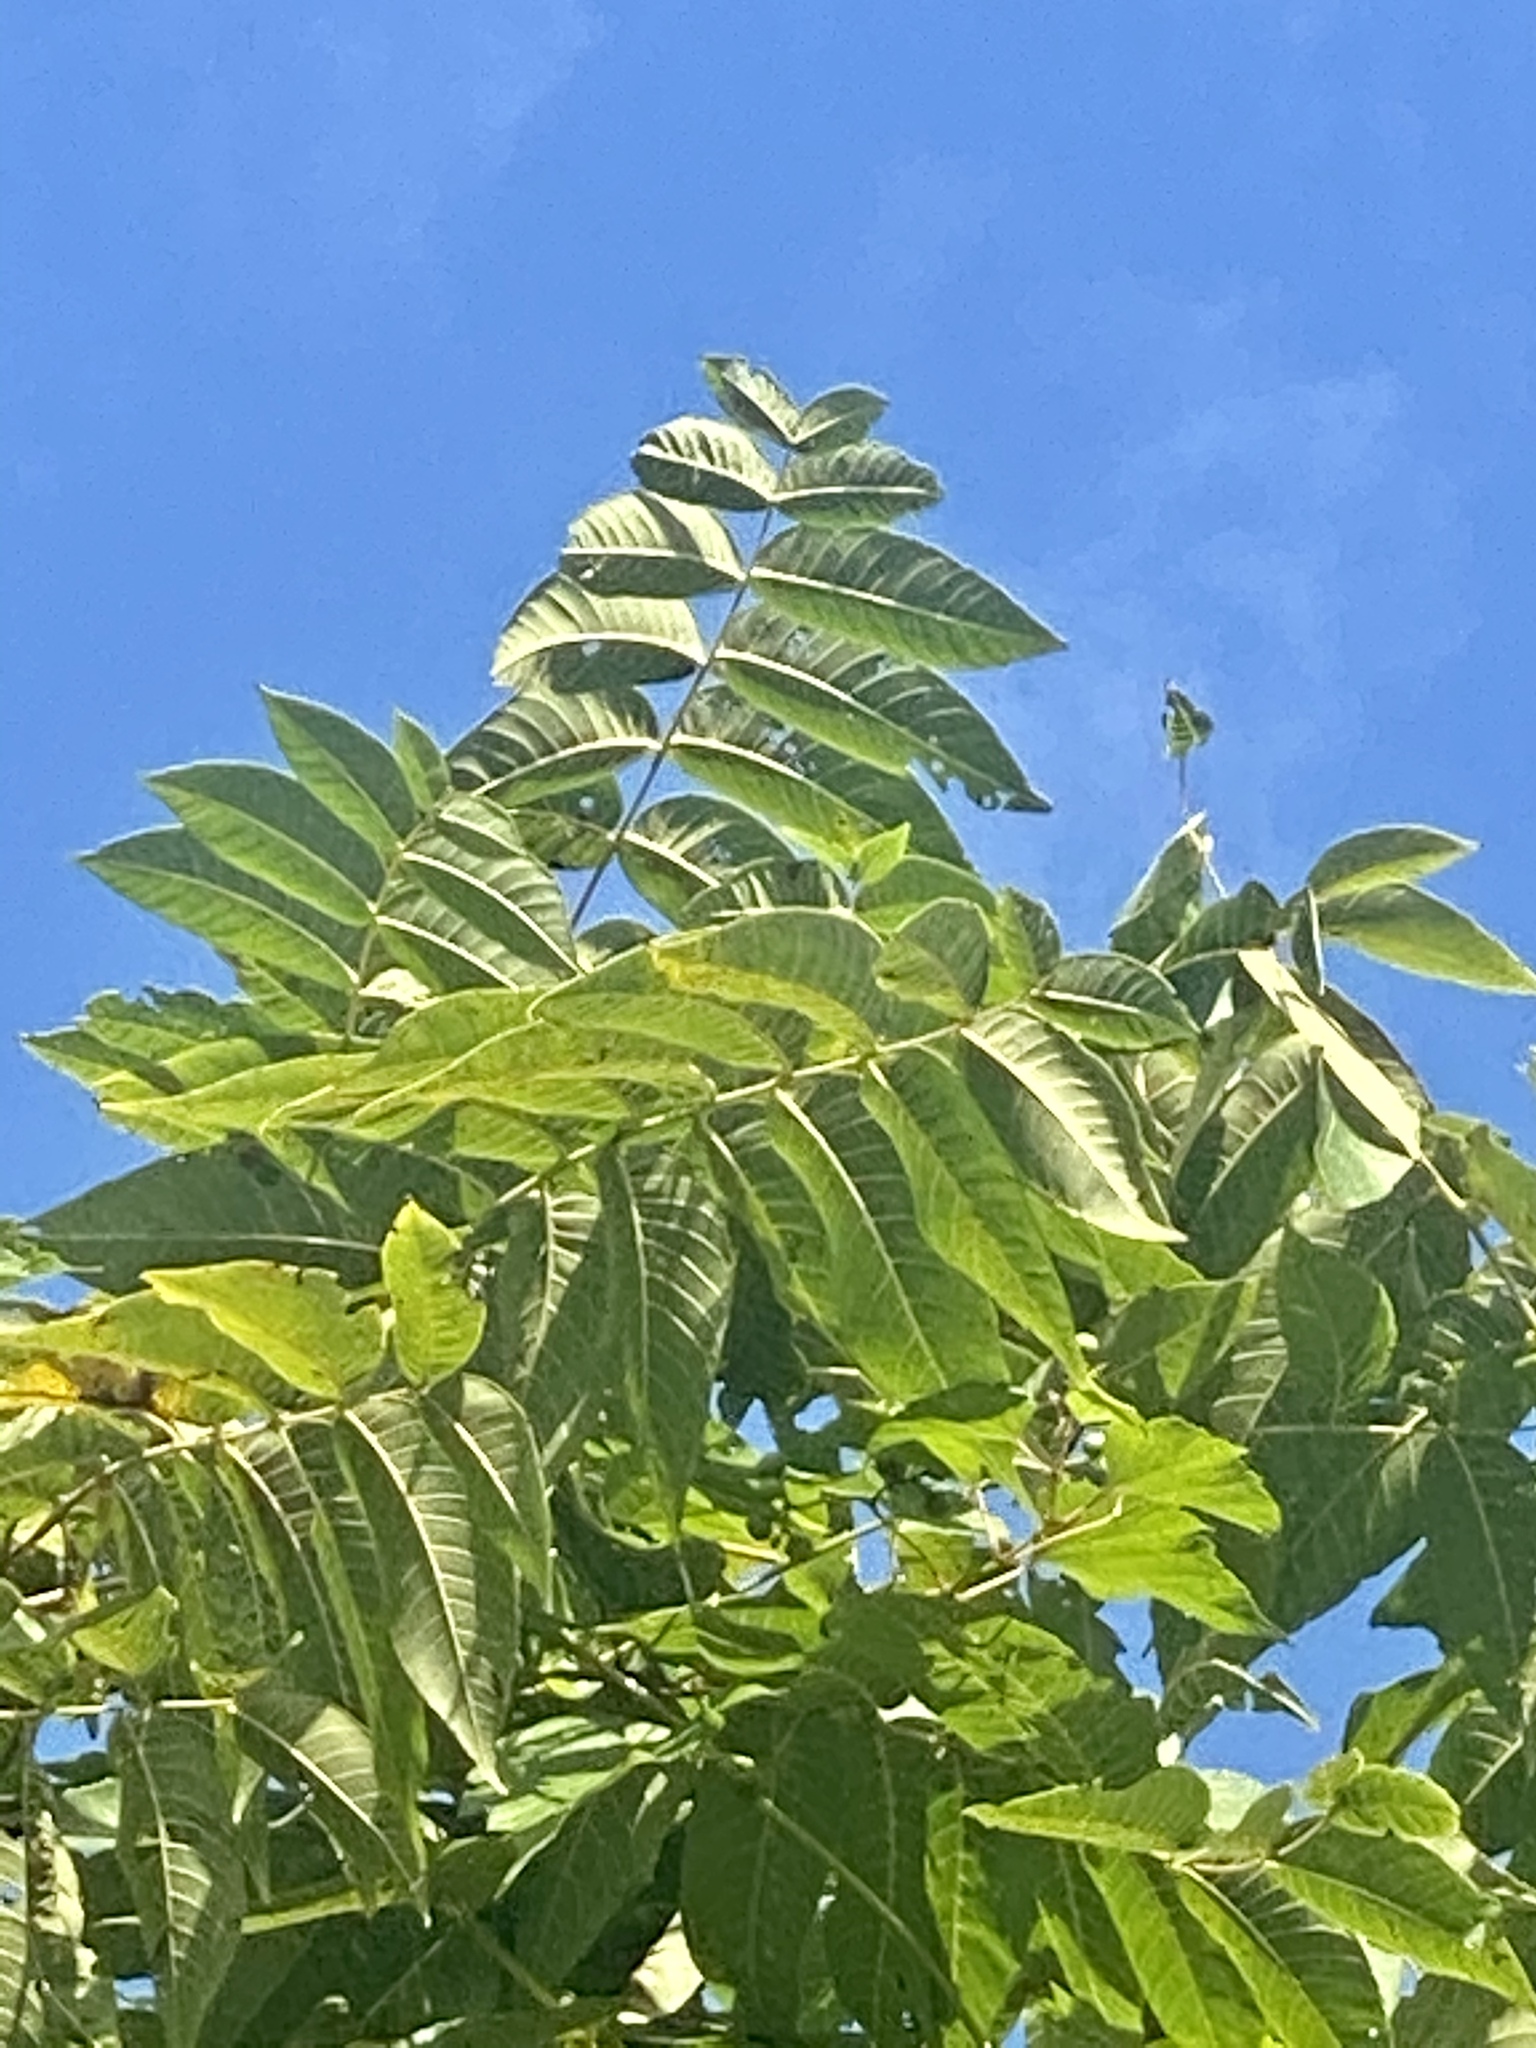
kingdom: Plantae
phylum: Tracheophyta
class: Magnoliopsida
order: Fagales
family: Juglandaceae
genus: Juglans
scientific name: Juglans nigra
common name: Black walnut
